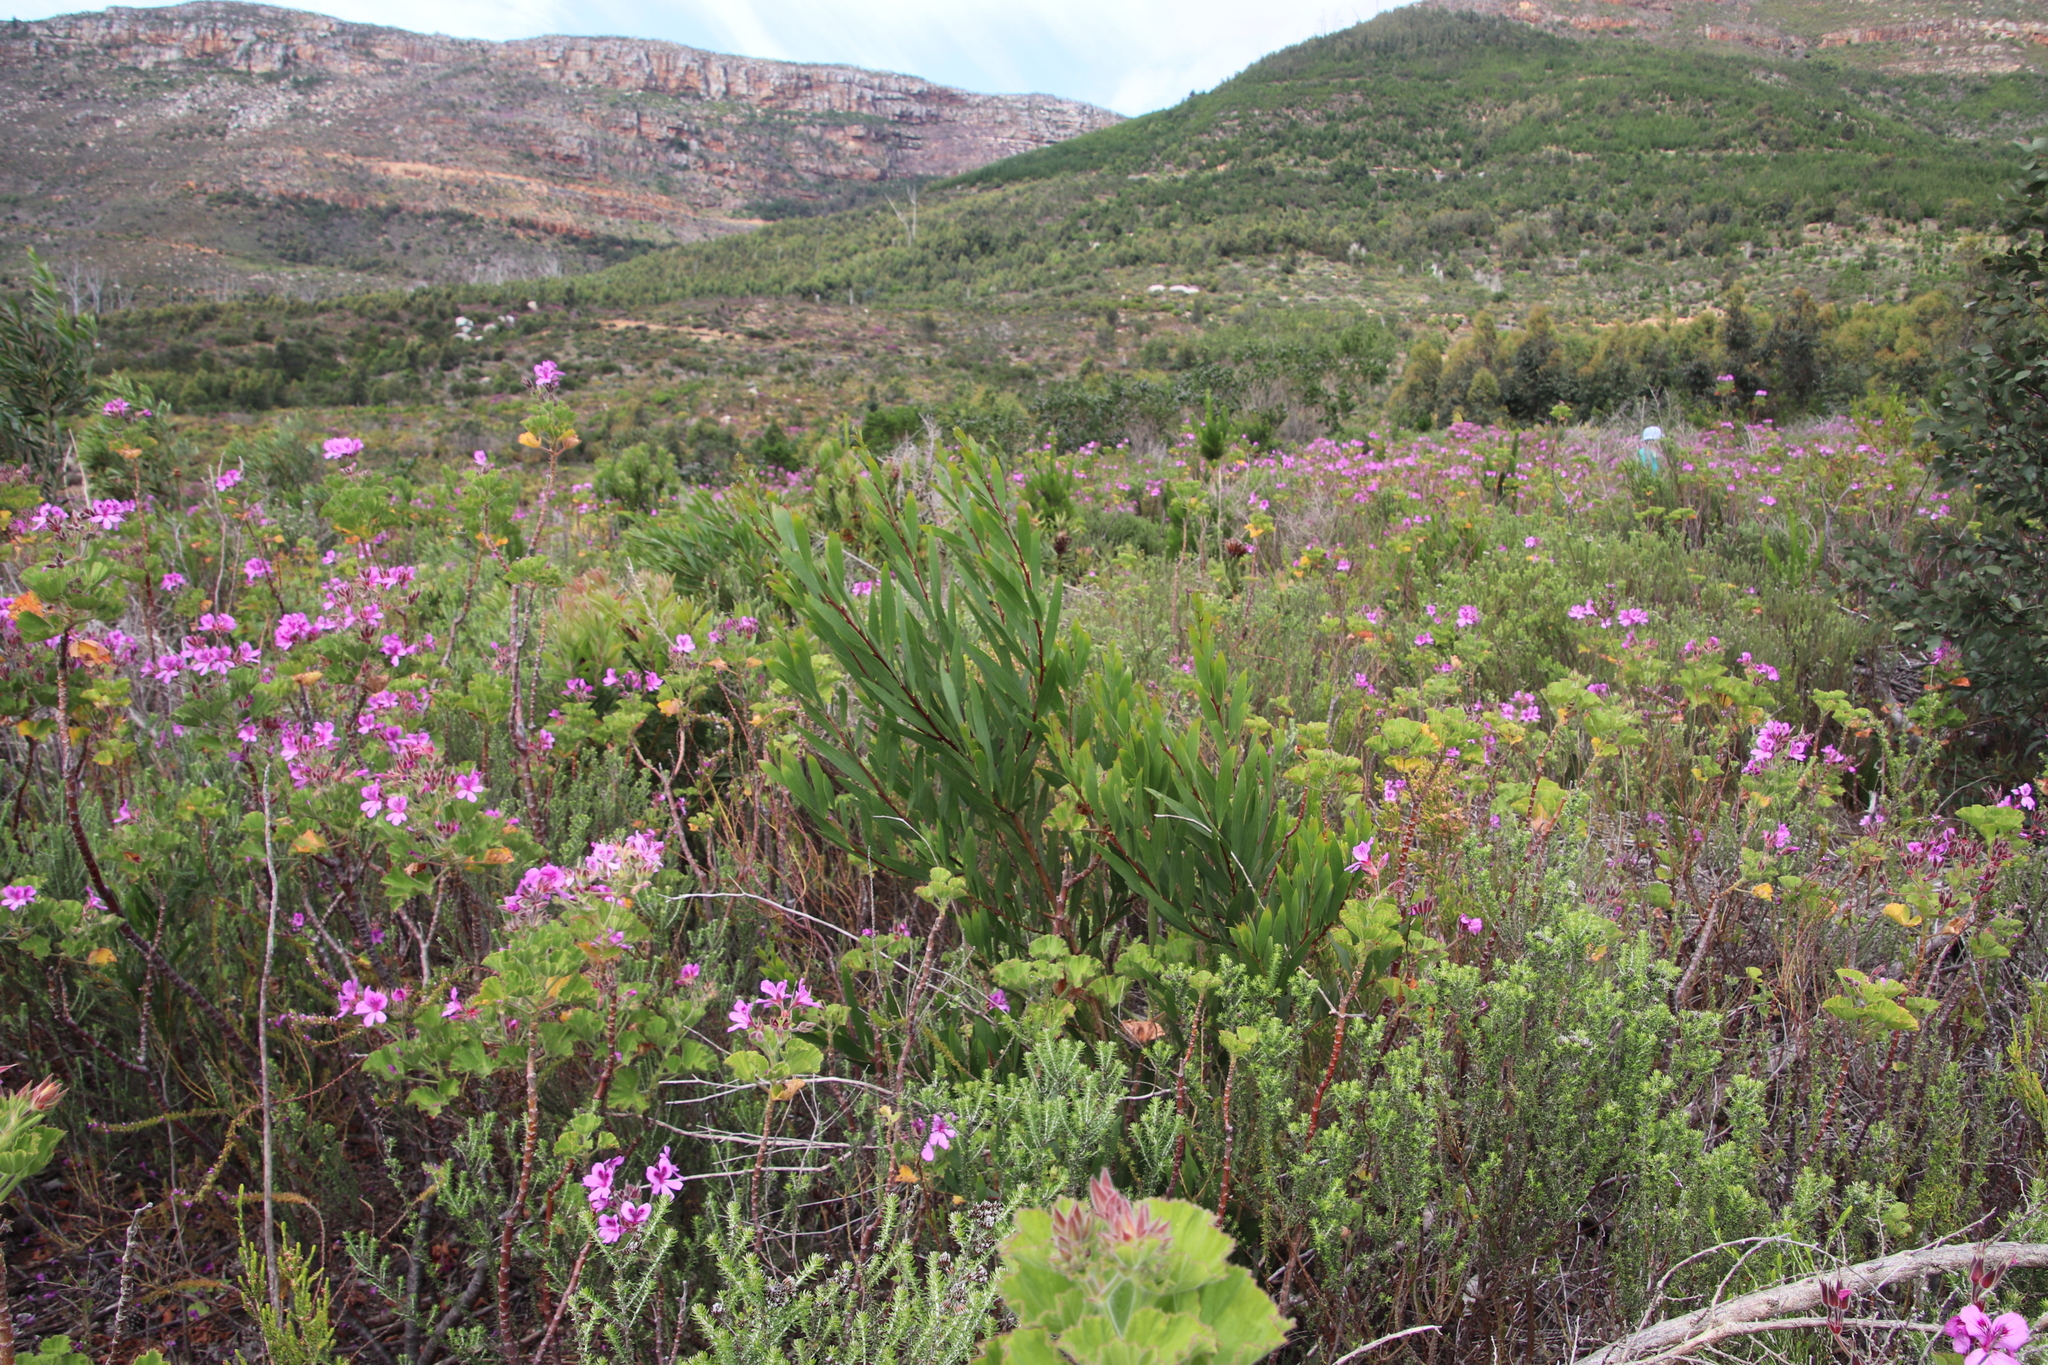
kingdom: Plantae
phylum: Tracheophyta
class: Magnoliopsida
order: Fabales
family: Fabaceae
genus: Acacia
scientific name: Acacia longifolia
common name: Sydney golden wattle
